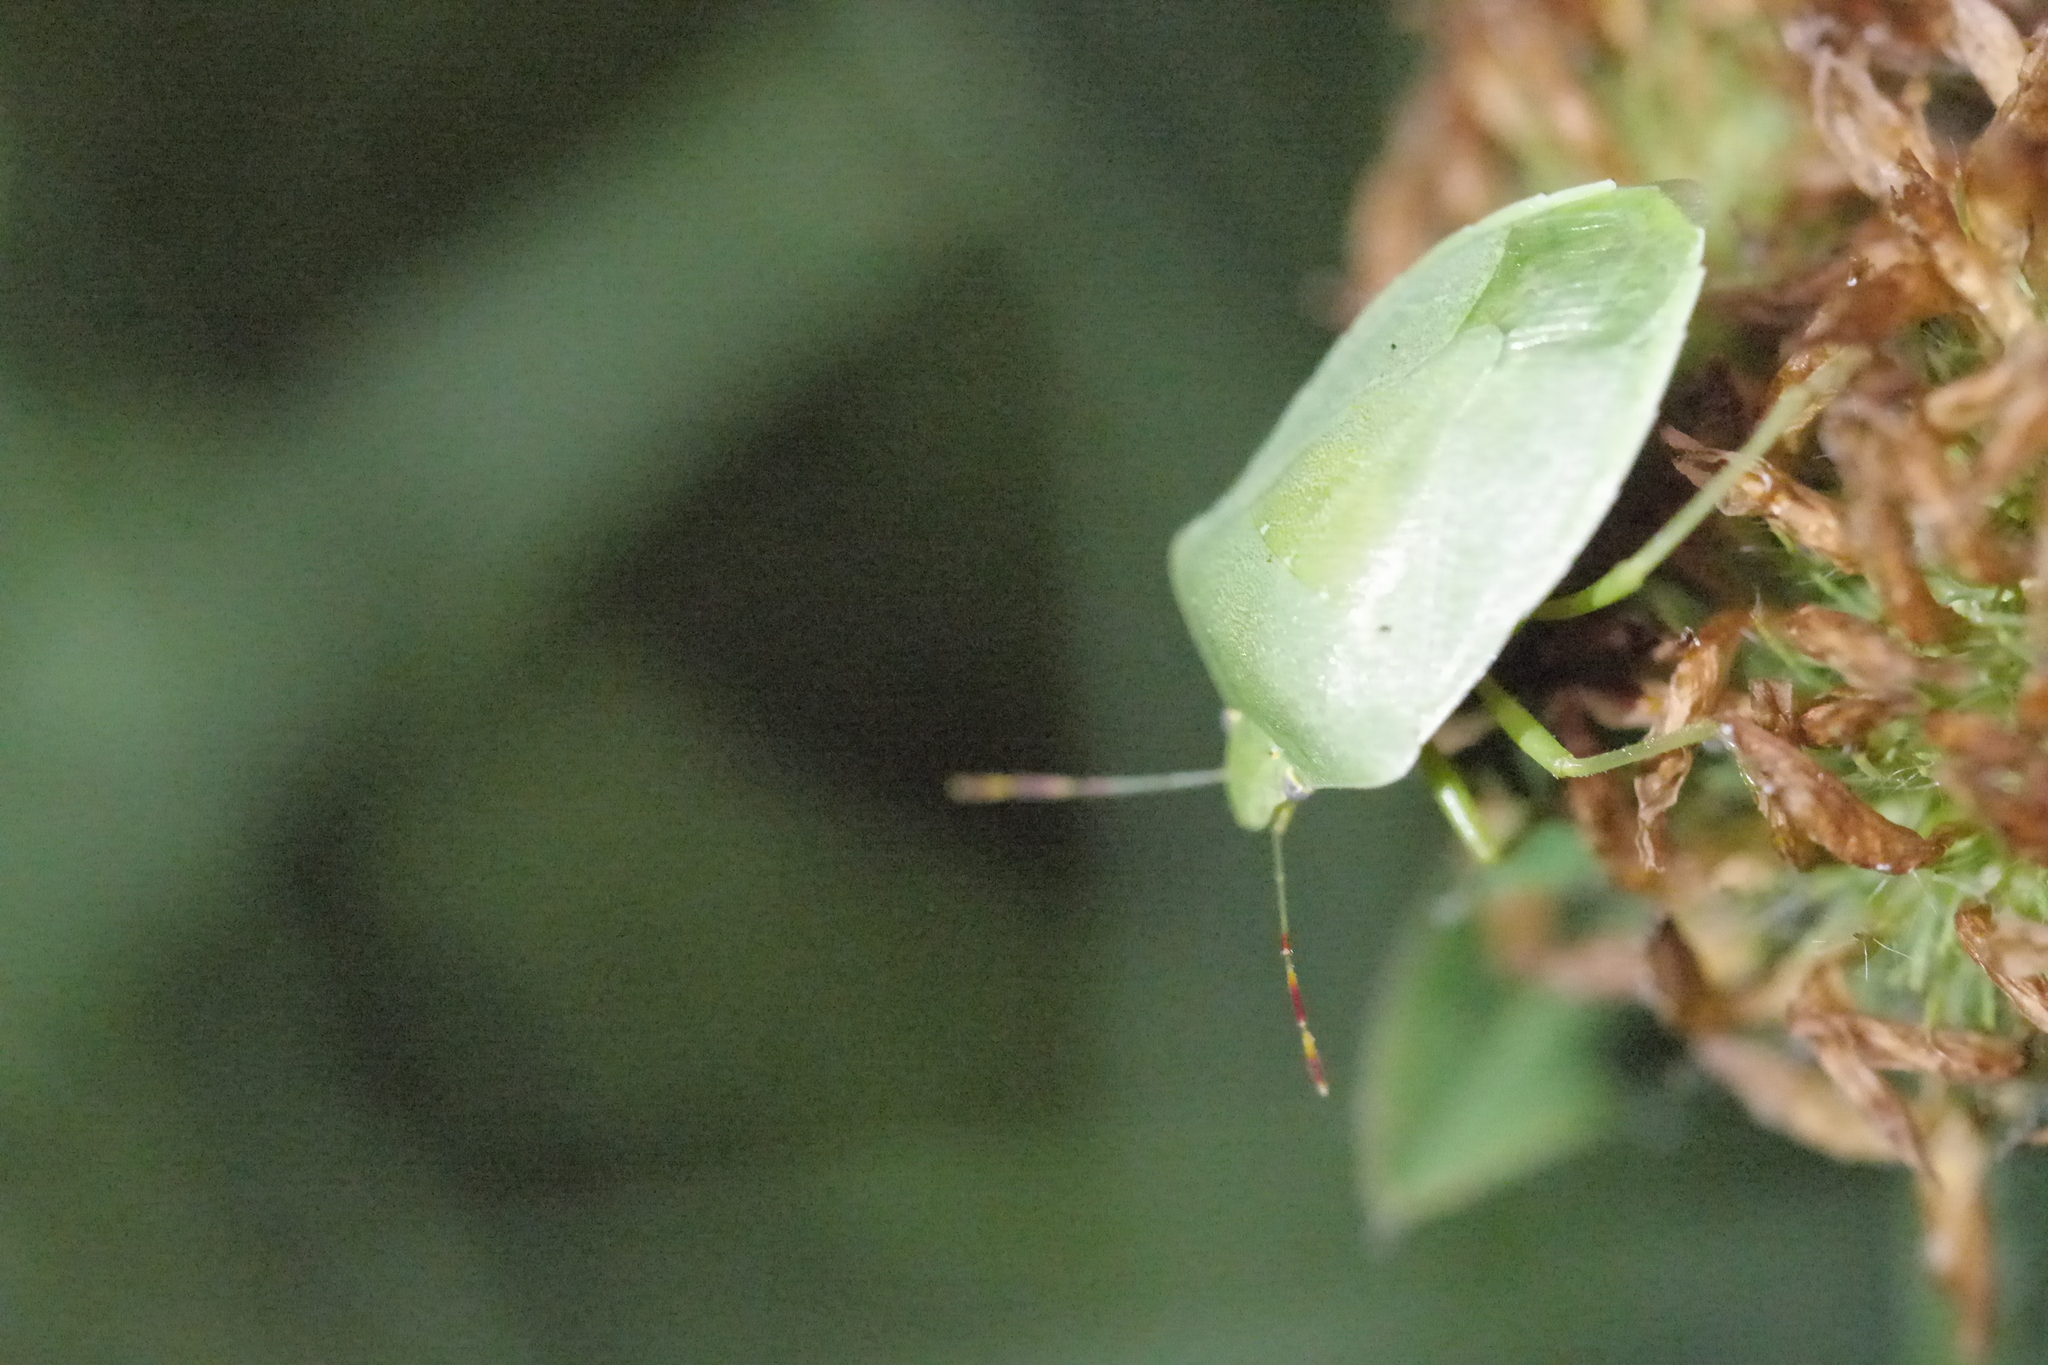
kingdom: Animalia
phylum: Arthropoda
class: Insecta
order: Hemiptera
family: Pentatomidae
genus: Nezara
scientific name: Nezara viridula
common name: Southern green stink bug
